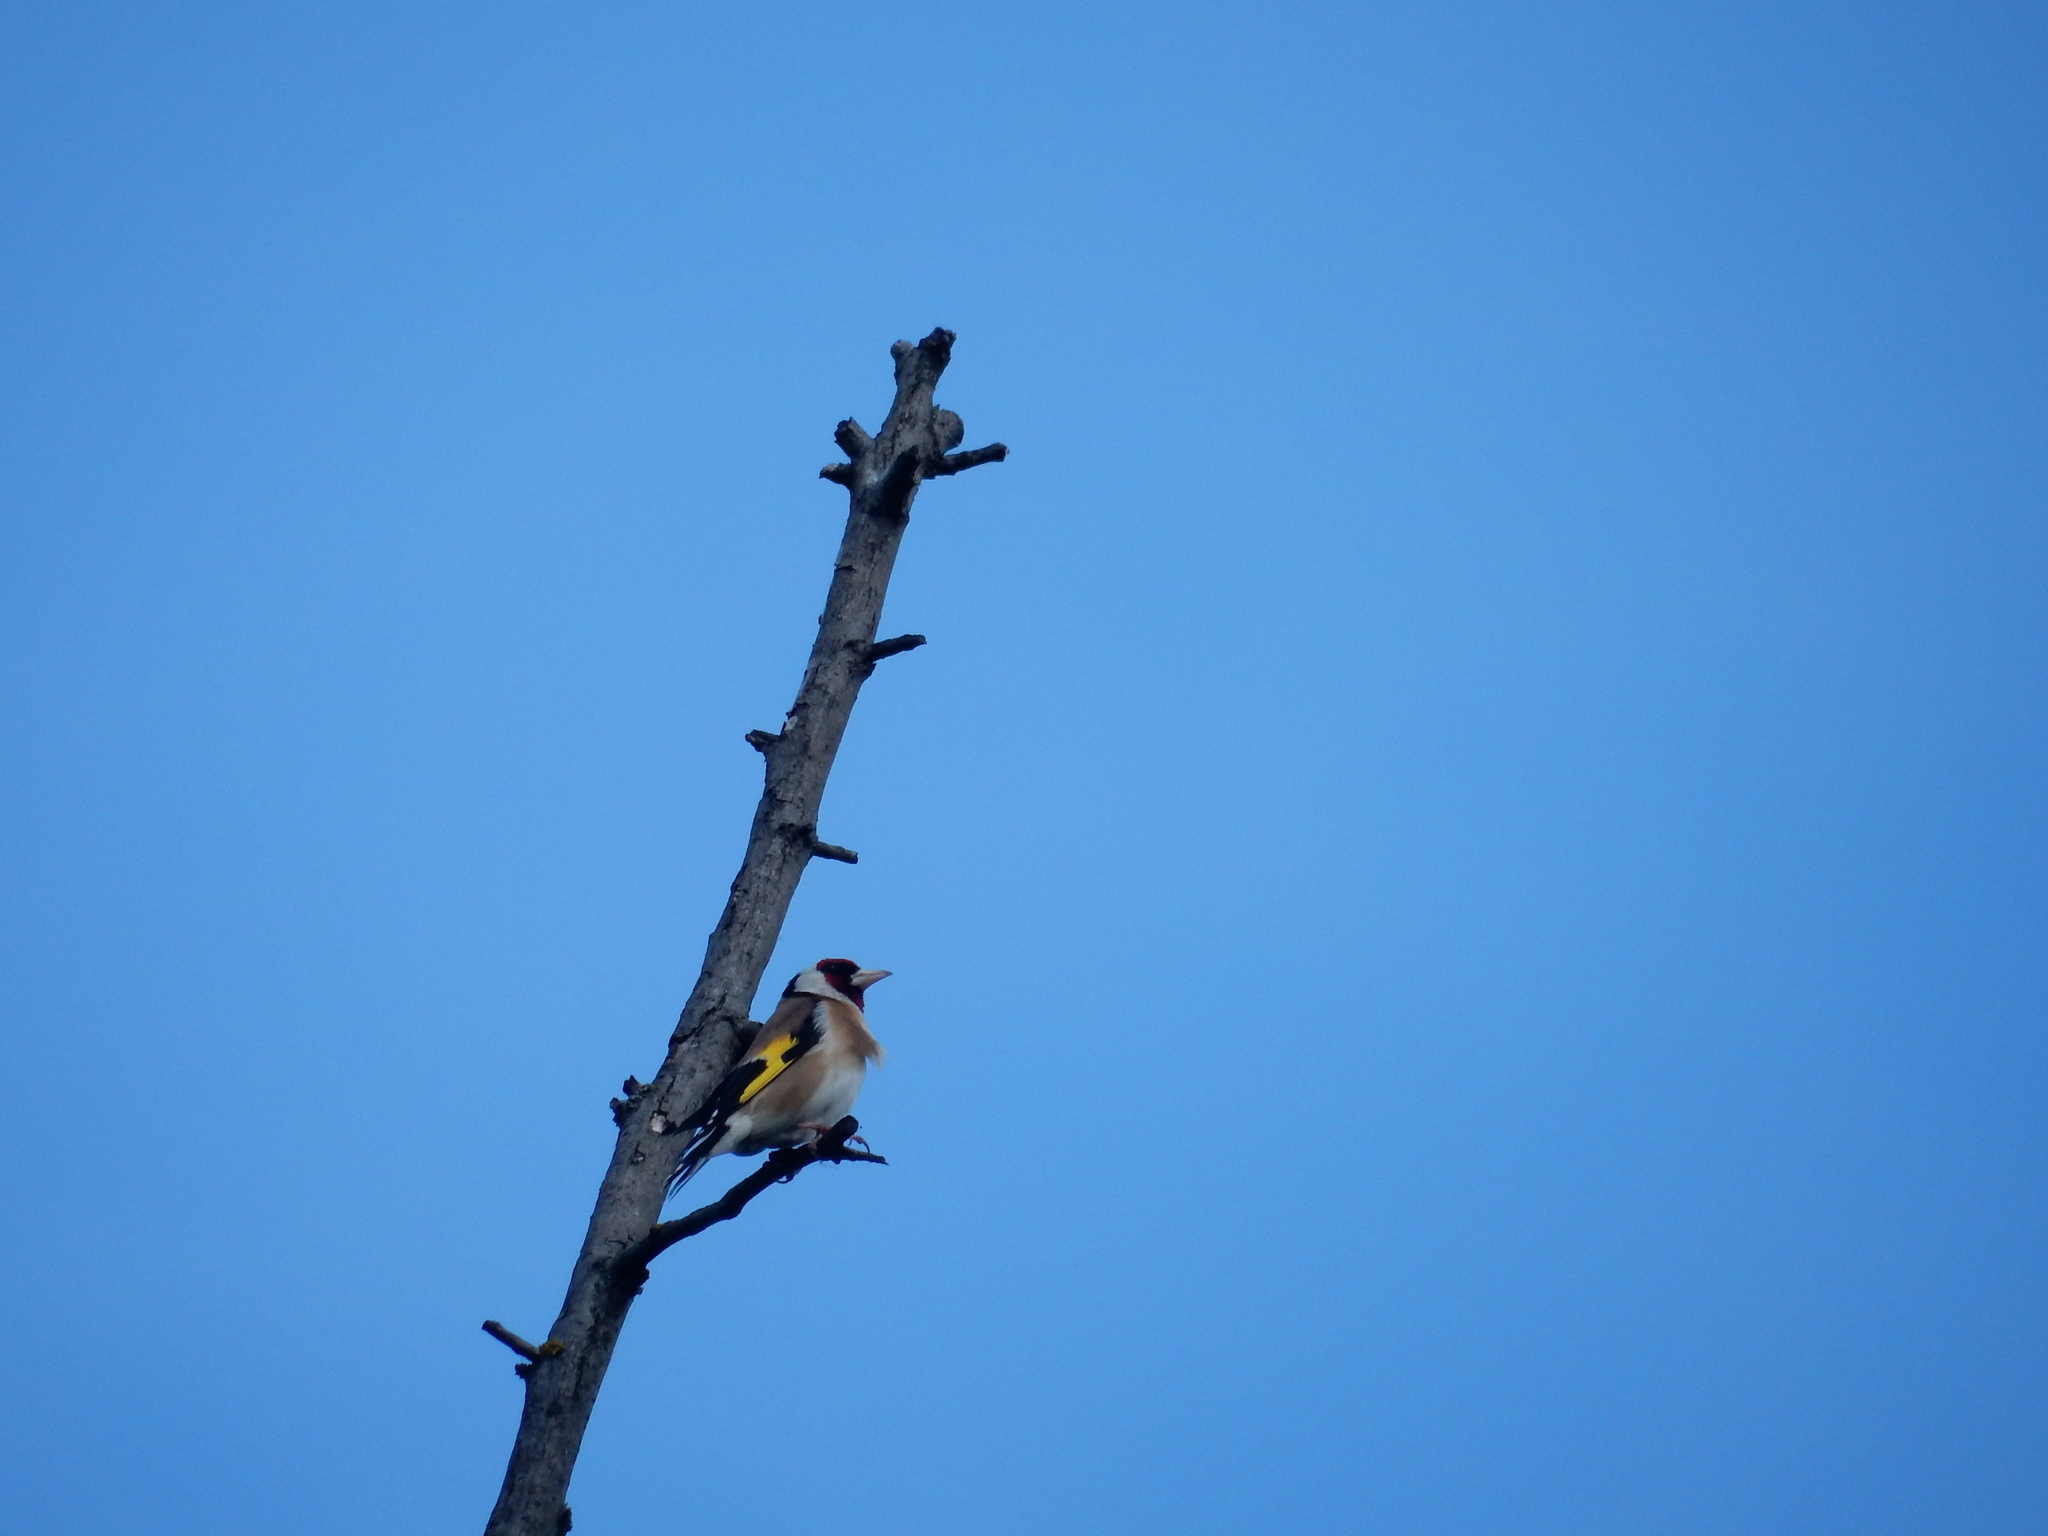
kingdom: Animalia
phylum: Chordata
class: Aves
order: Passeriformes
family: Fringillidae
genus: Carduelis
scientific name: Carduelis carduelis
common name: European goldfinch
